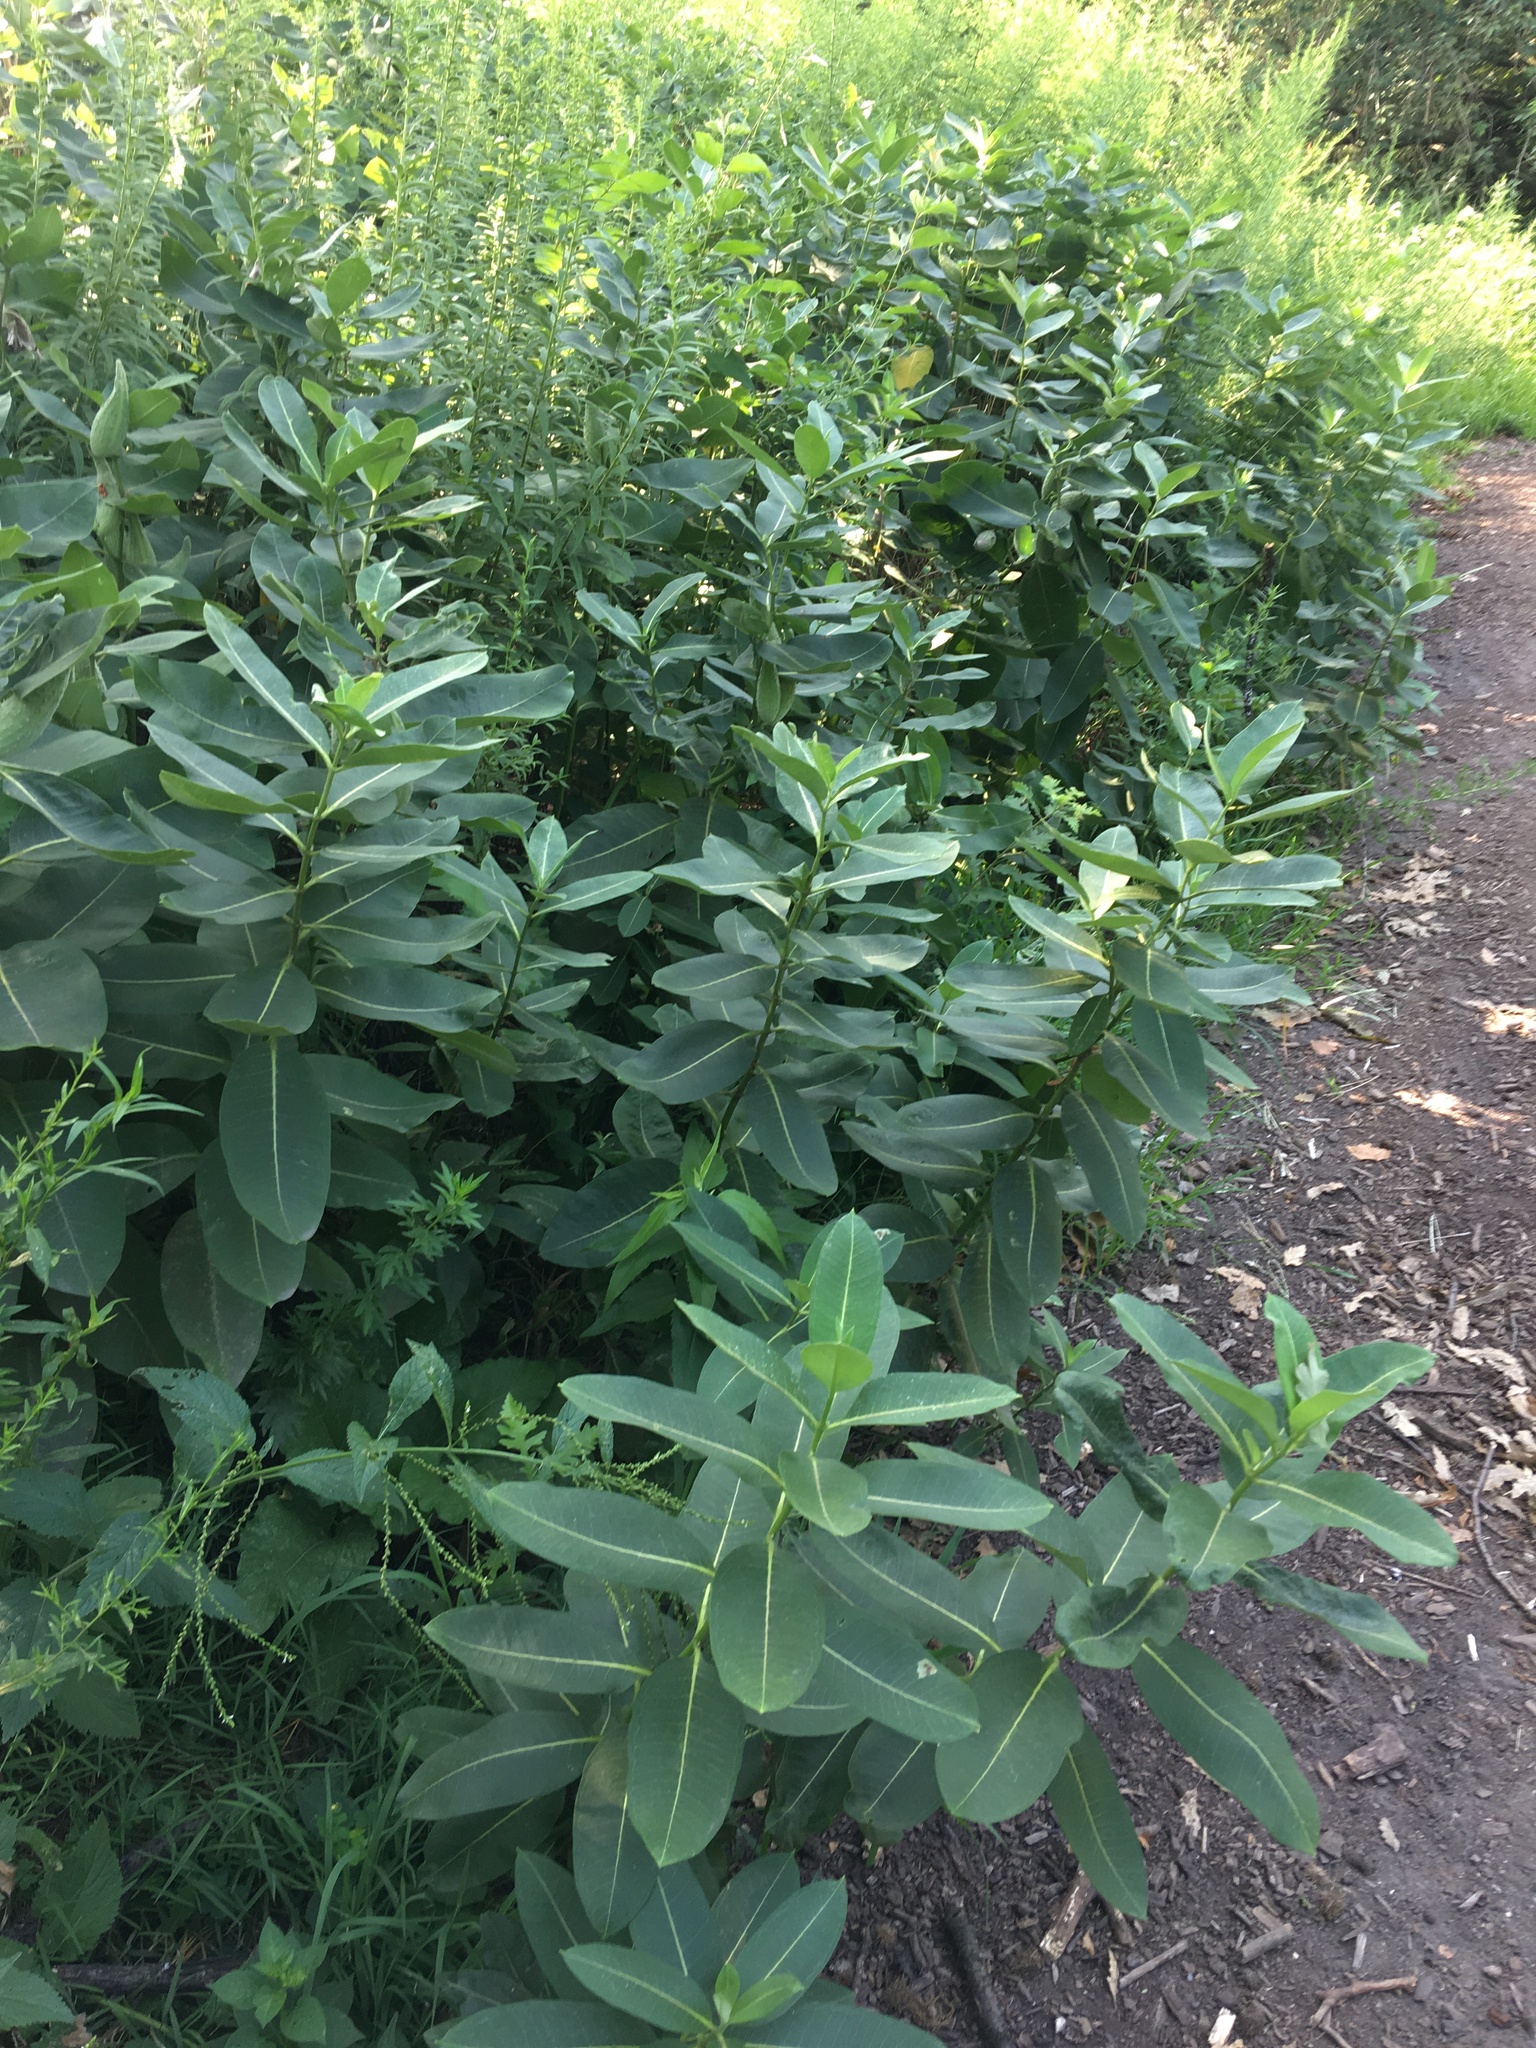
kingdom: Plantae
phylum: Tracheophyta
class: Magnoliopsida
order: Gentianales
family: Apocynaceae
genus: Asclepias
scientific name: Asclepias syriaca
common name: Common milkweed
